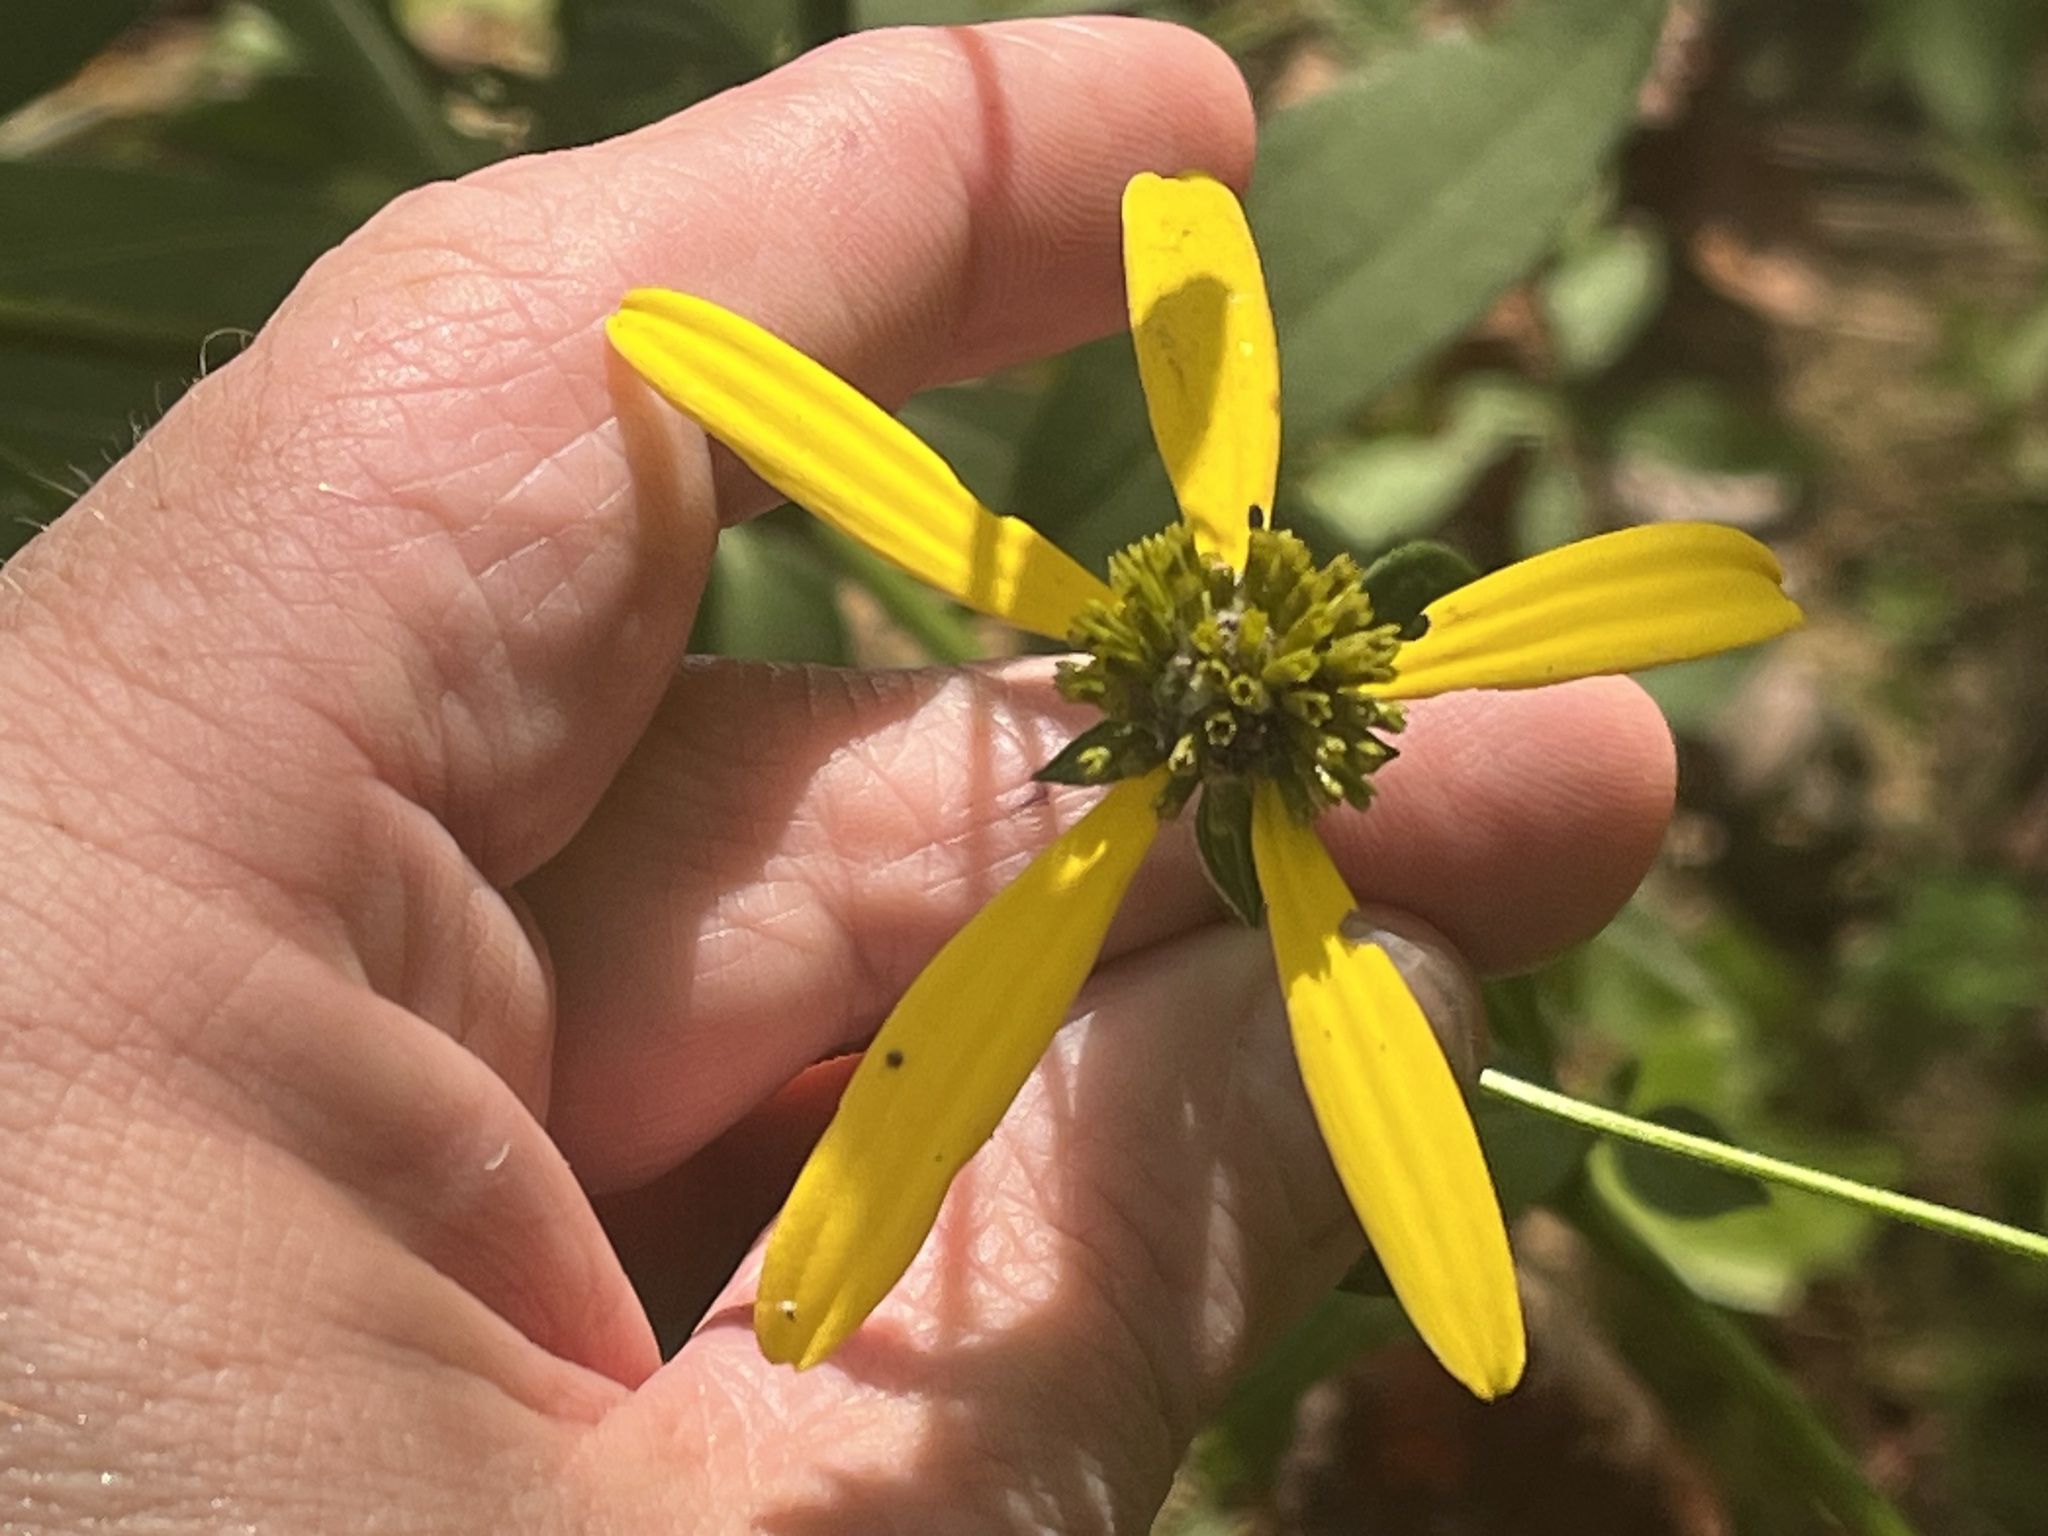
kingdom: Plantae
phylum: Tracheophyta
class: Magnoliopsida
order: Asterales
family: Asteraceae
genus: Rudbeckia
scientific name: Rudbeckia laciniata
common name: Coneflower
